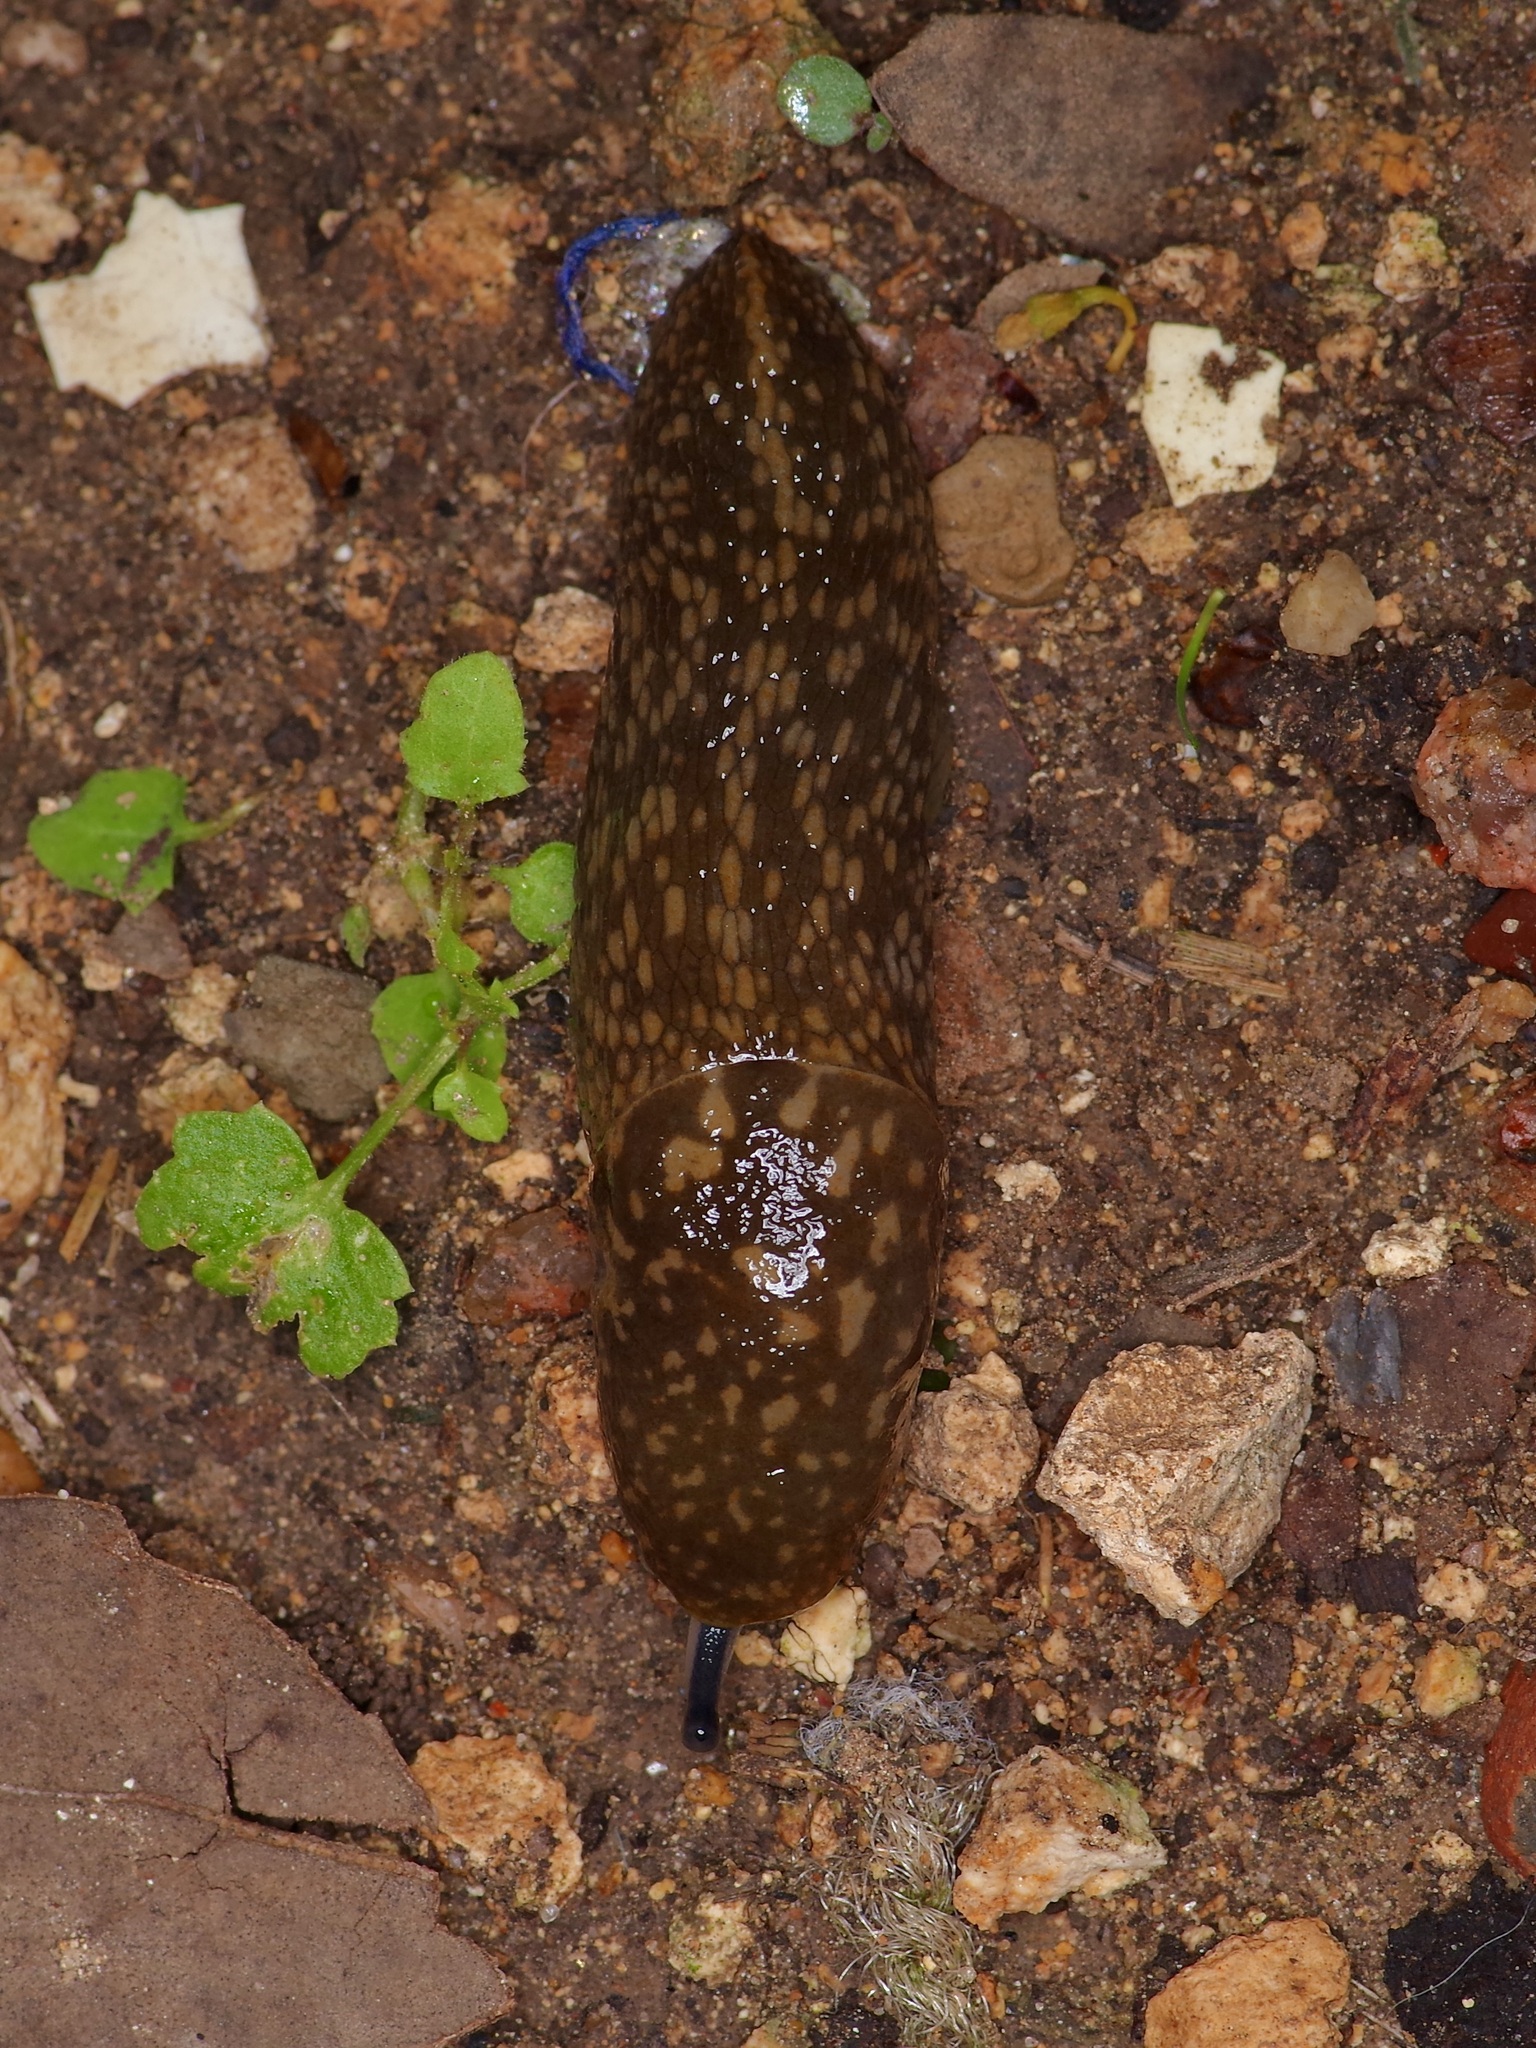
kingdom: Animalia
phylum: Mollusca
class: Gastropoda
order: Stylommatophora
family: Limacidae
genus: Limacus
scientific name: Limacus flavus
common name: Yellow gardenslug
